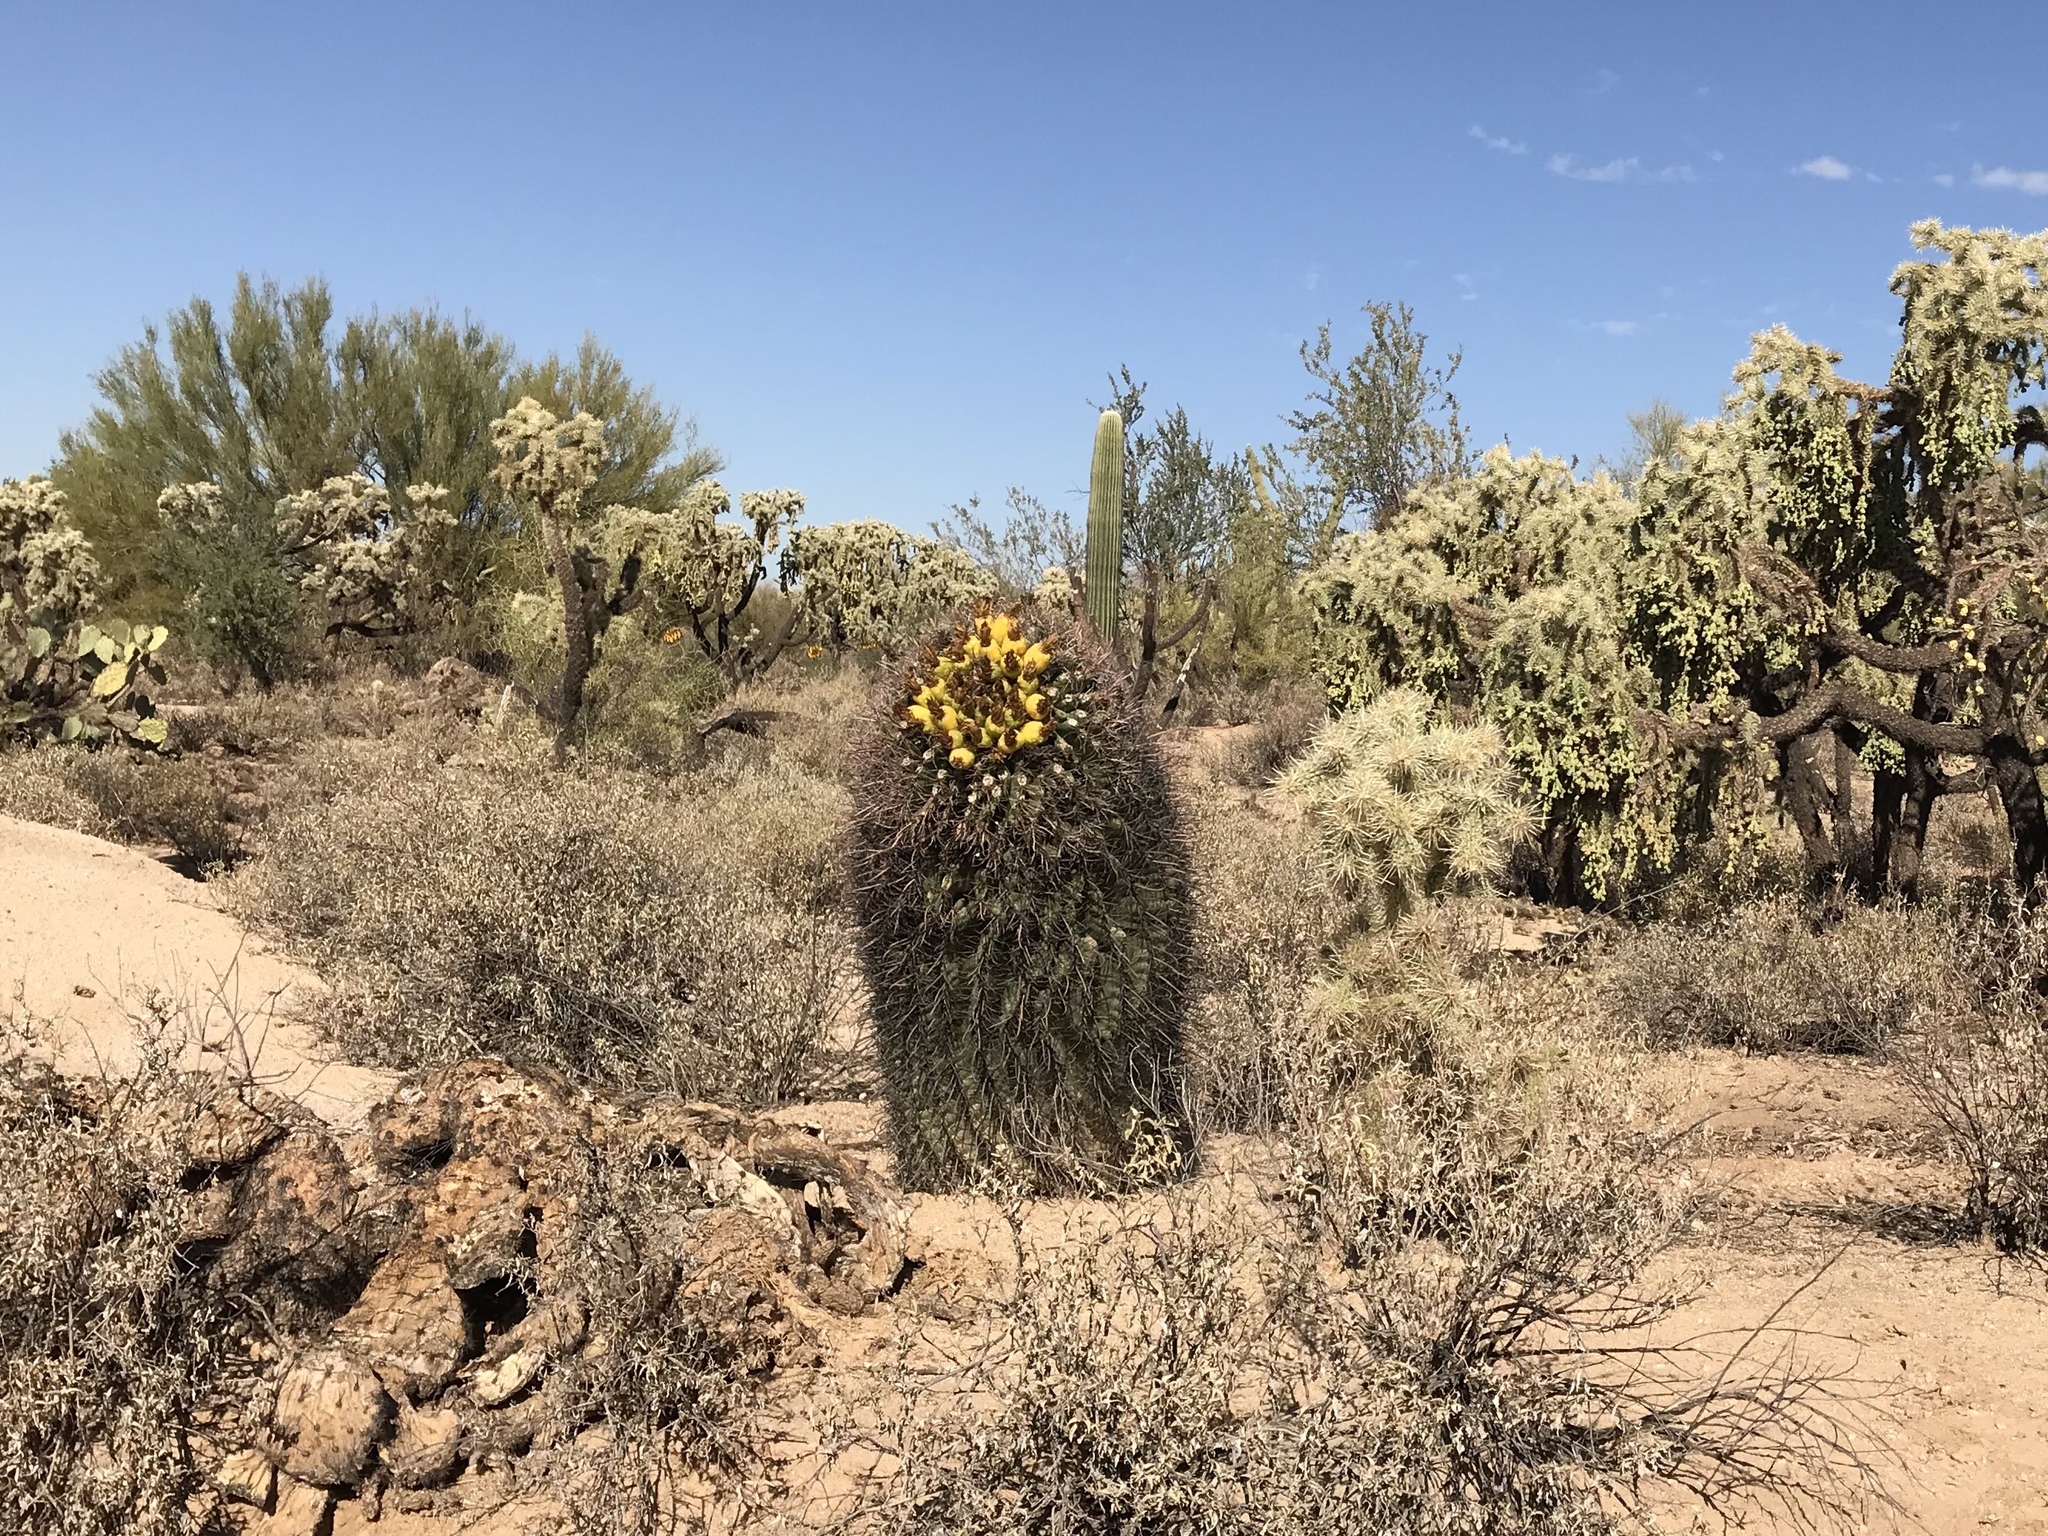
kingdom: Plantae
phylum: Tracheophyta
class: Magnoliopsida
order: Caryophyllales
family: Cactaceae
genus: Ferocactus
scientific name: Ferocactus wislizeni
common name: Candy barrel cactus
